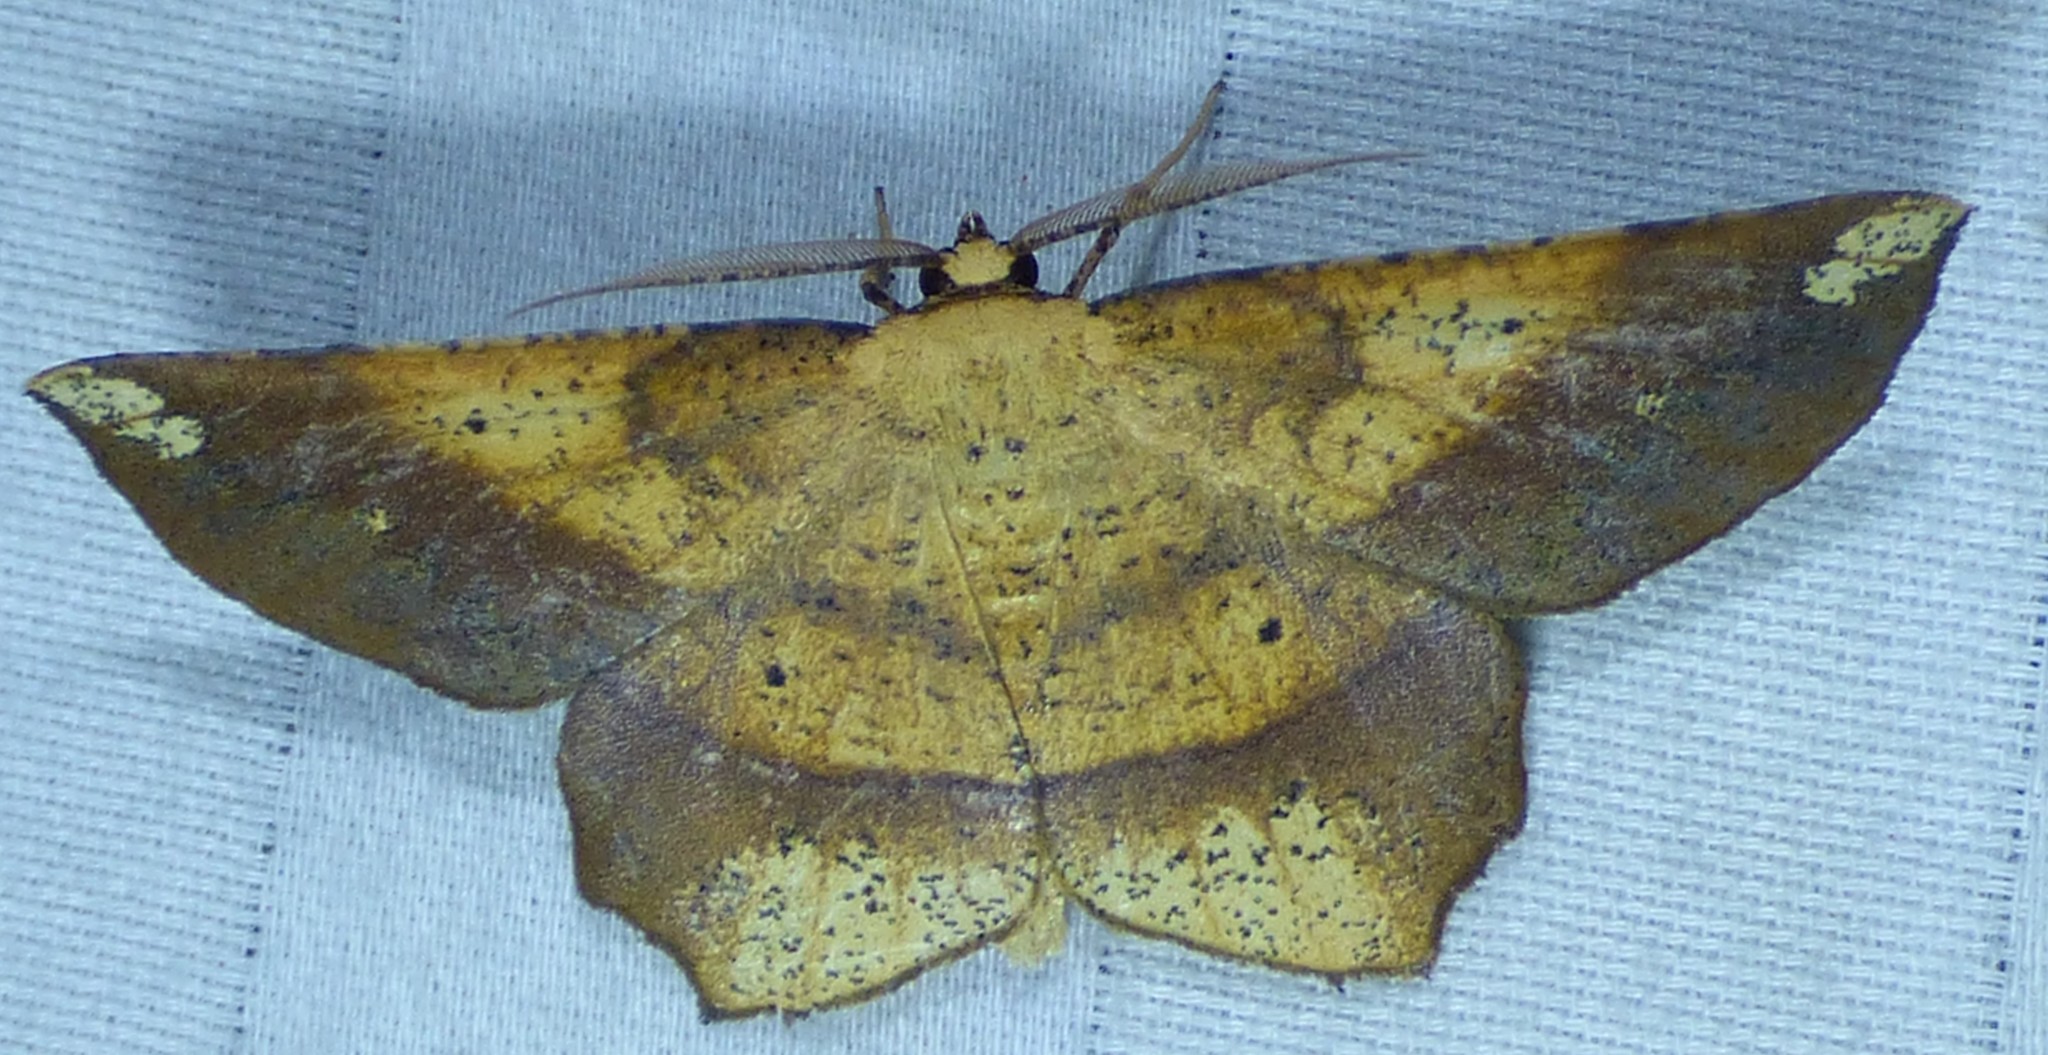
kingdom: Animalia
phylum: Arthropoda
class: Insecta
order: Lepidoptera
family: Geometridae
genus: Euchlaena
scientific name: Euchlaena amoenaria
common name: Deep yellow euchlaena
